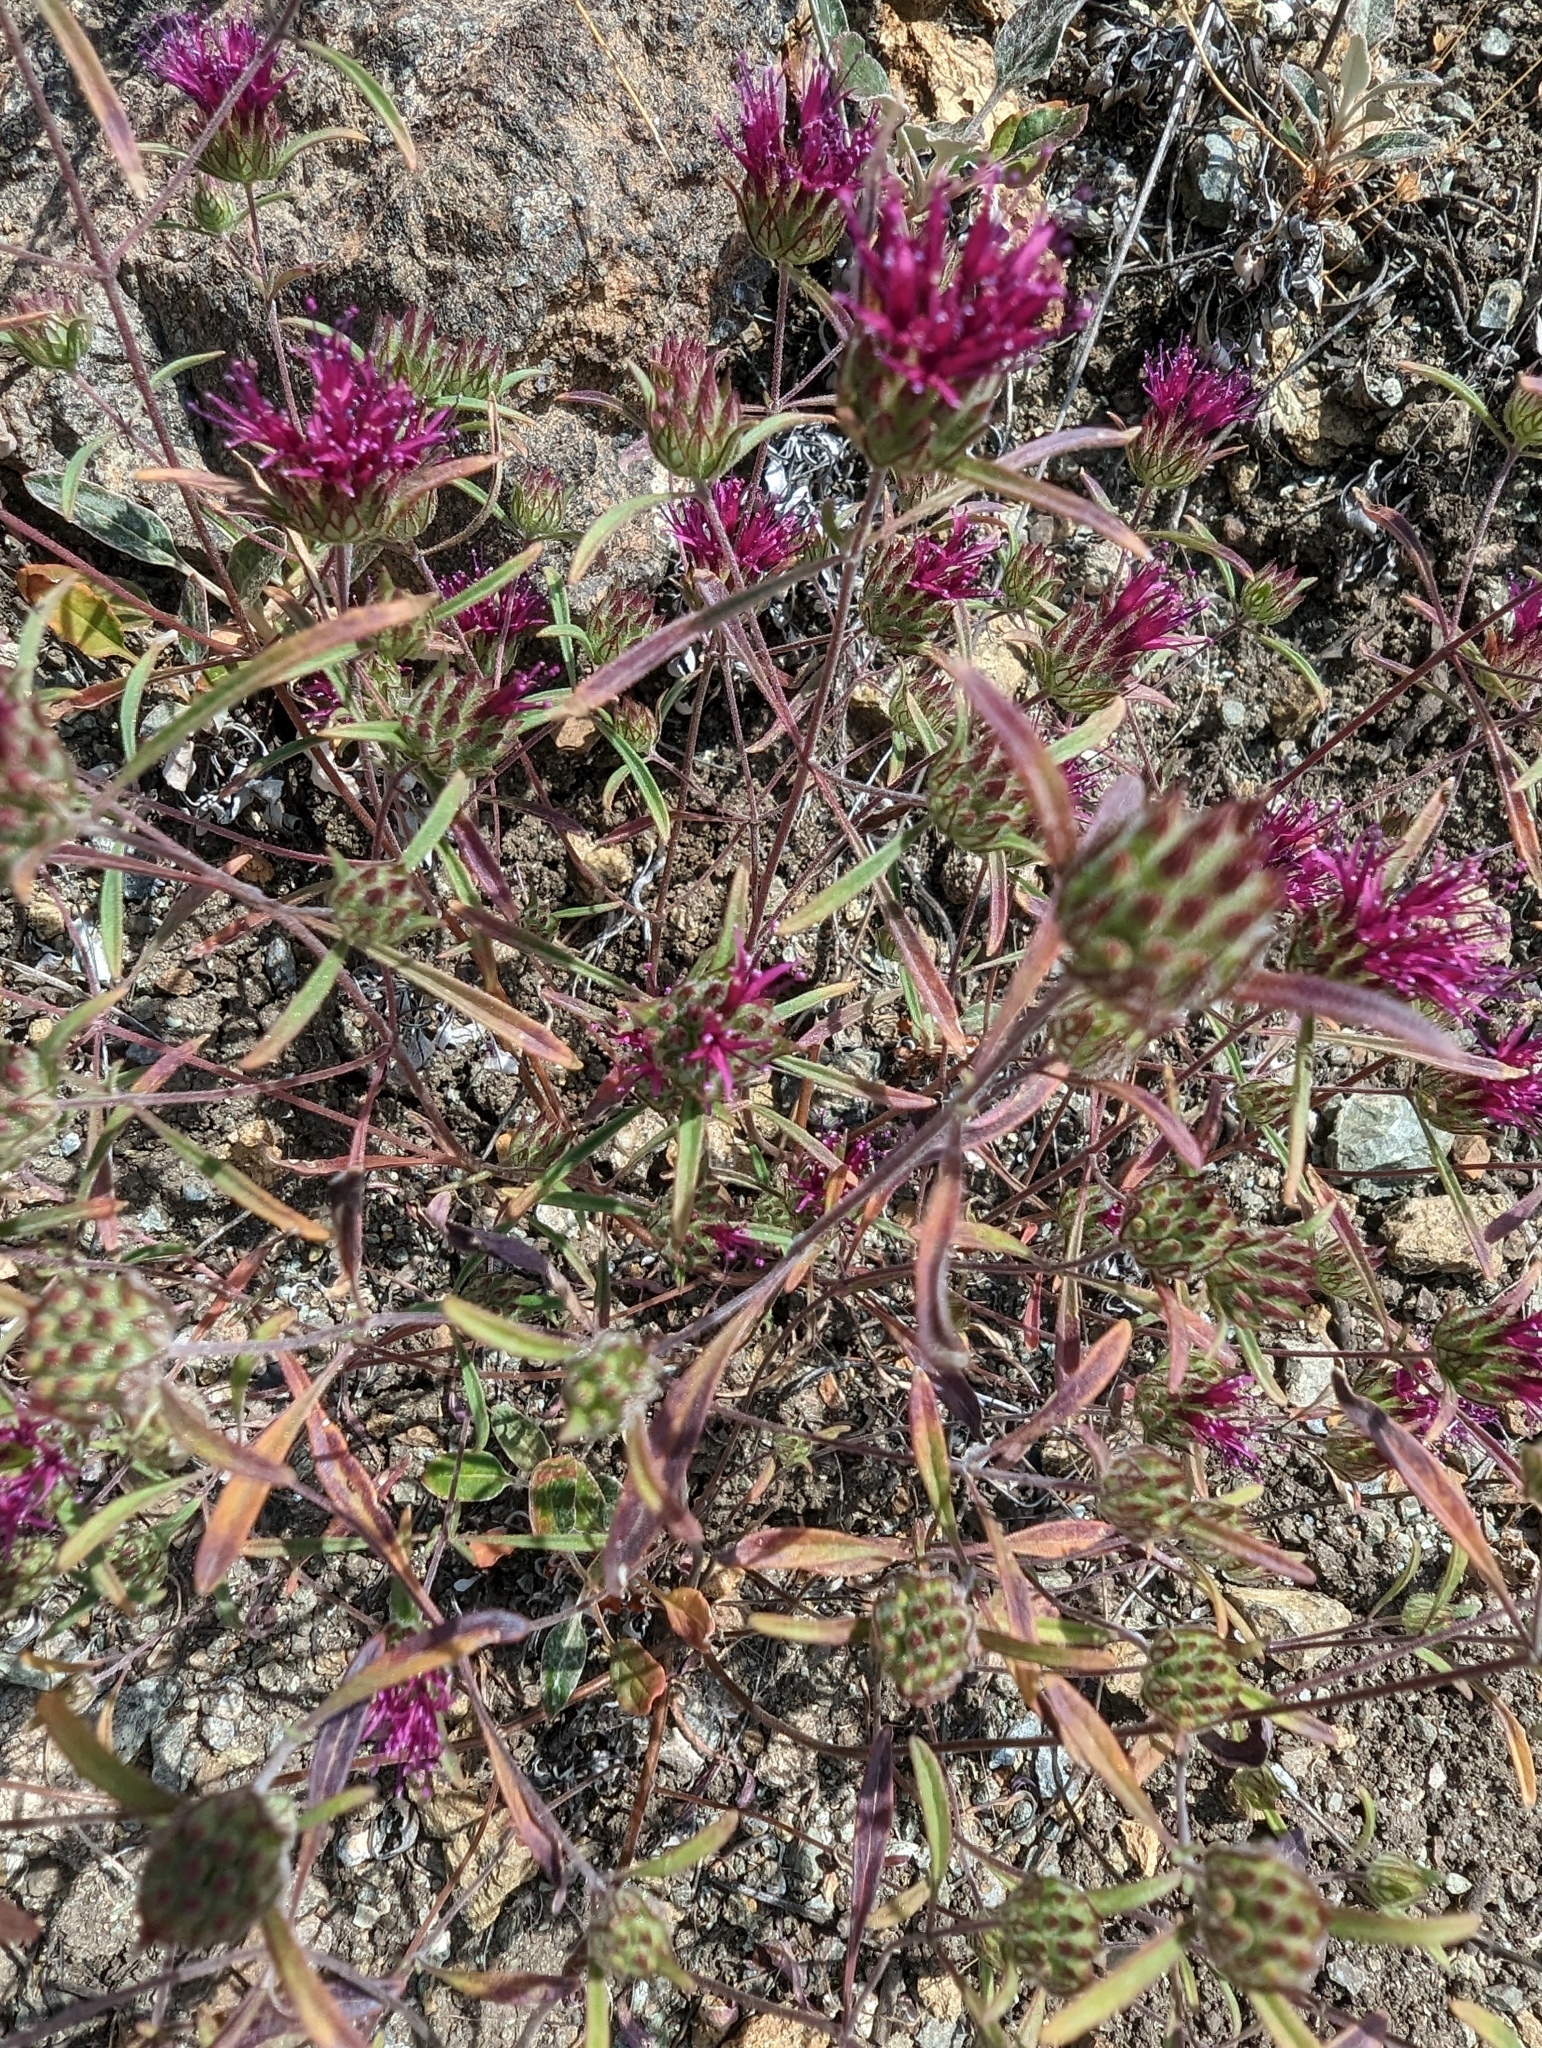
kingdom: Plantae
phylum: Tracheophyta
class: Magnoliopsida
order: Lamiales
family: Lamiaceae
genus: Monardella
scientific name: Monardella douglasii
